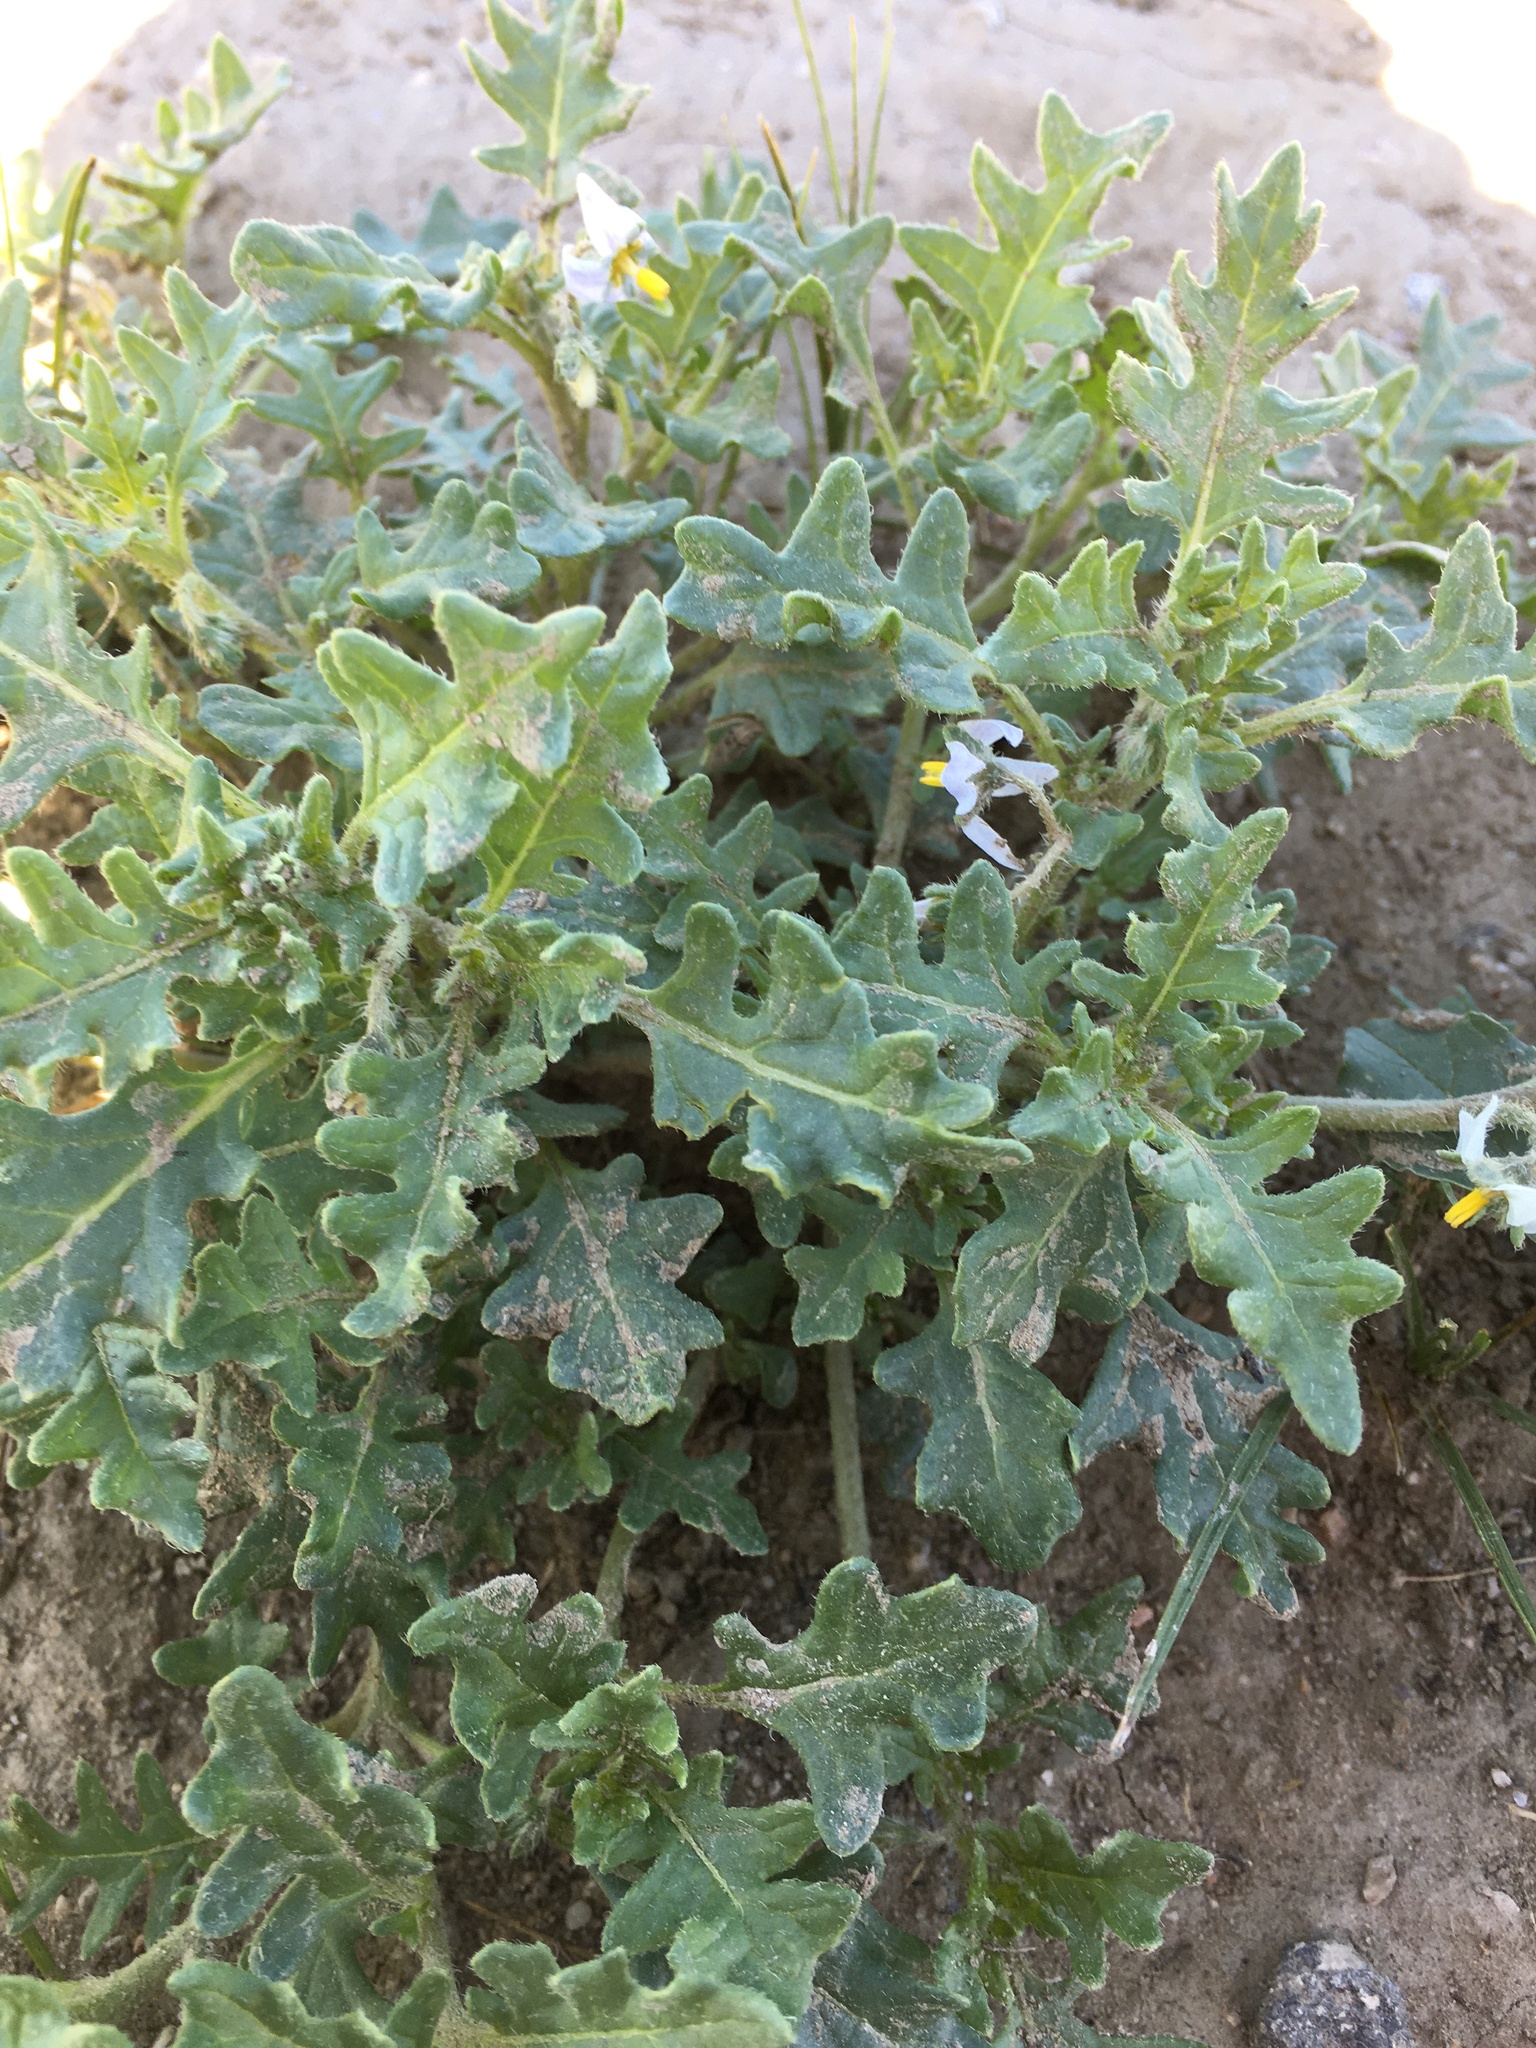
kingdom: Plantae
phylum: Tracheophyta
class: Magnoliopsida
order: Solanales
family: Solanaceae
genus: Solanum
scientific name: Solanum triflorum
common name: Small nightshade
